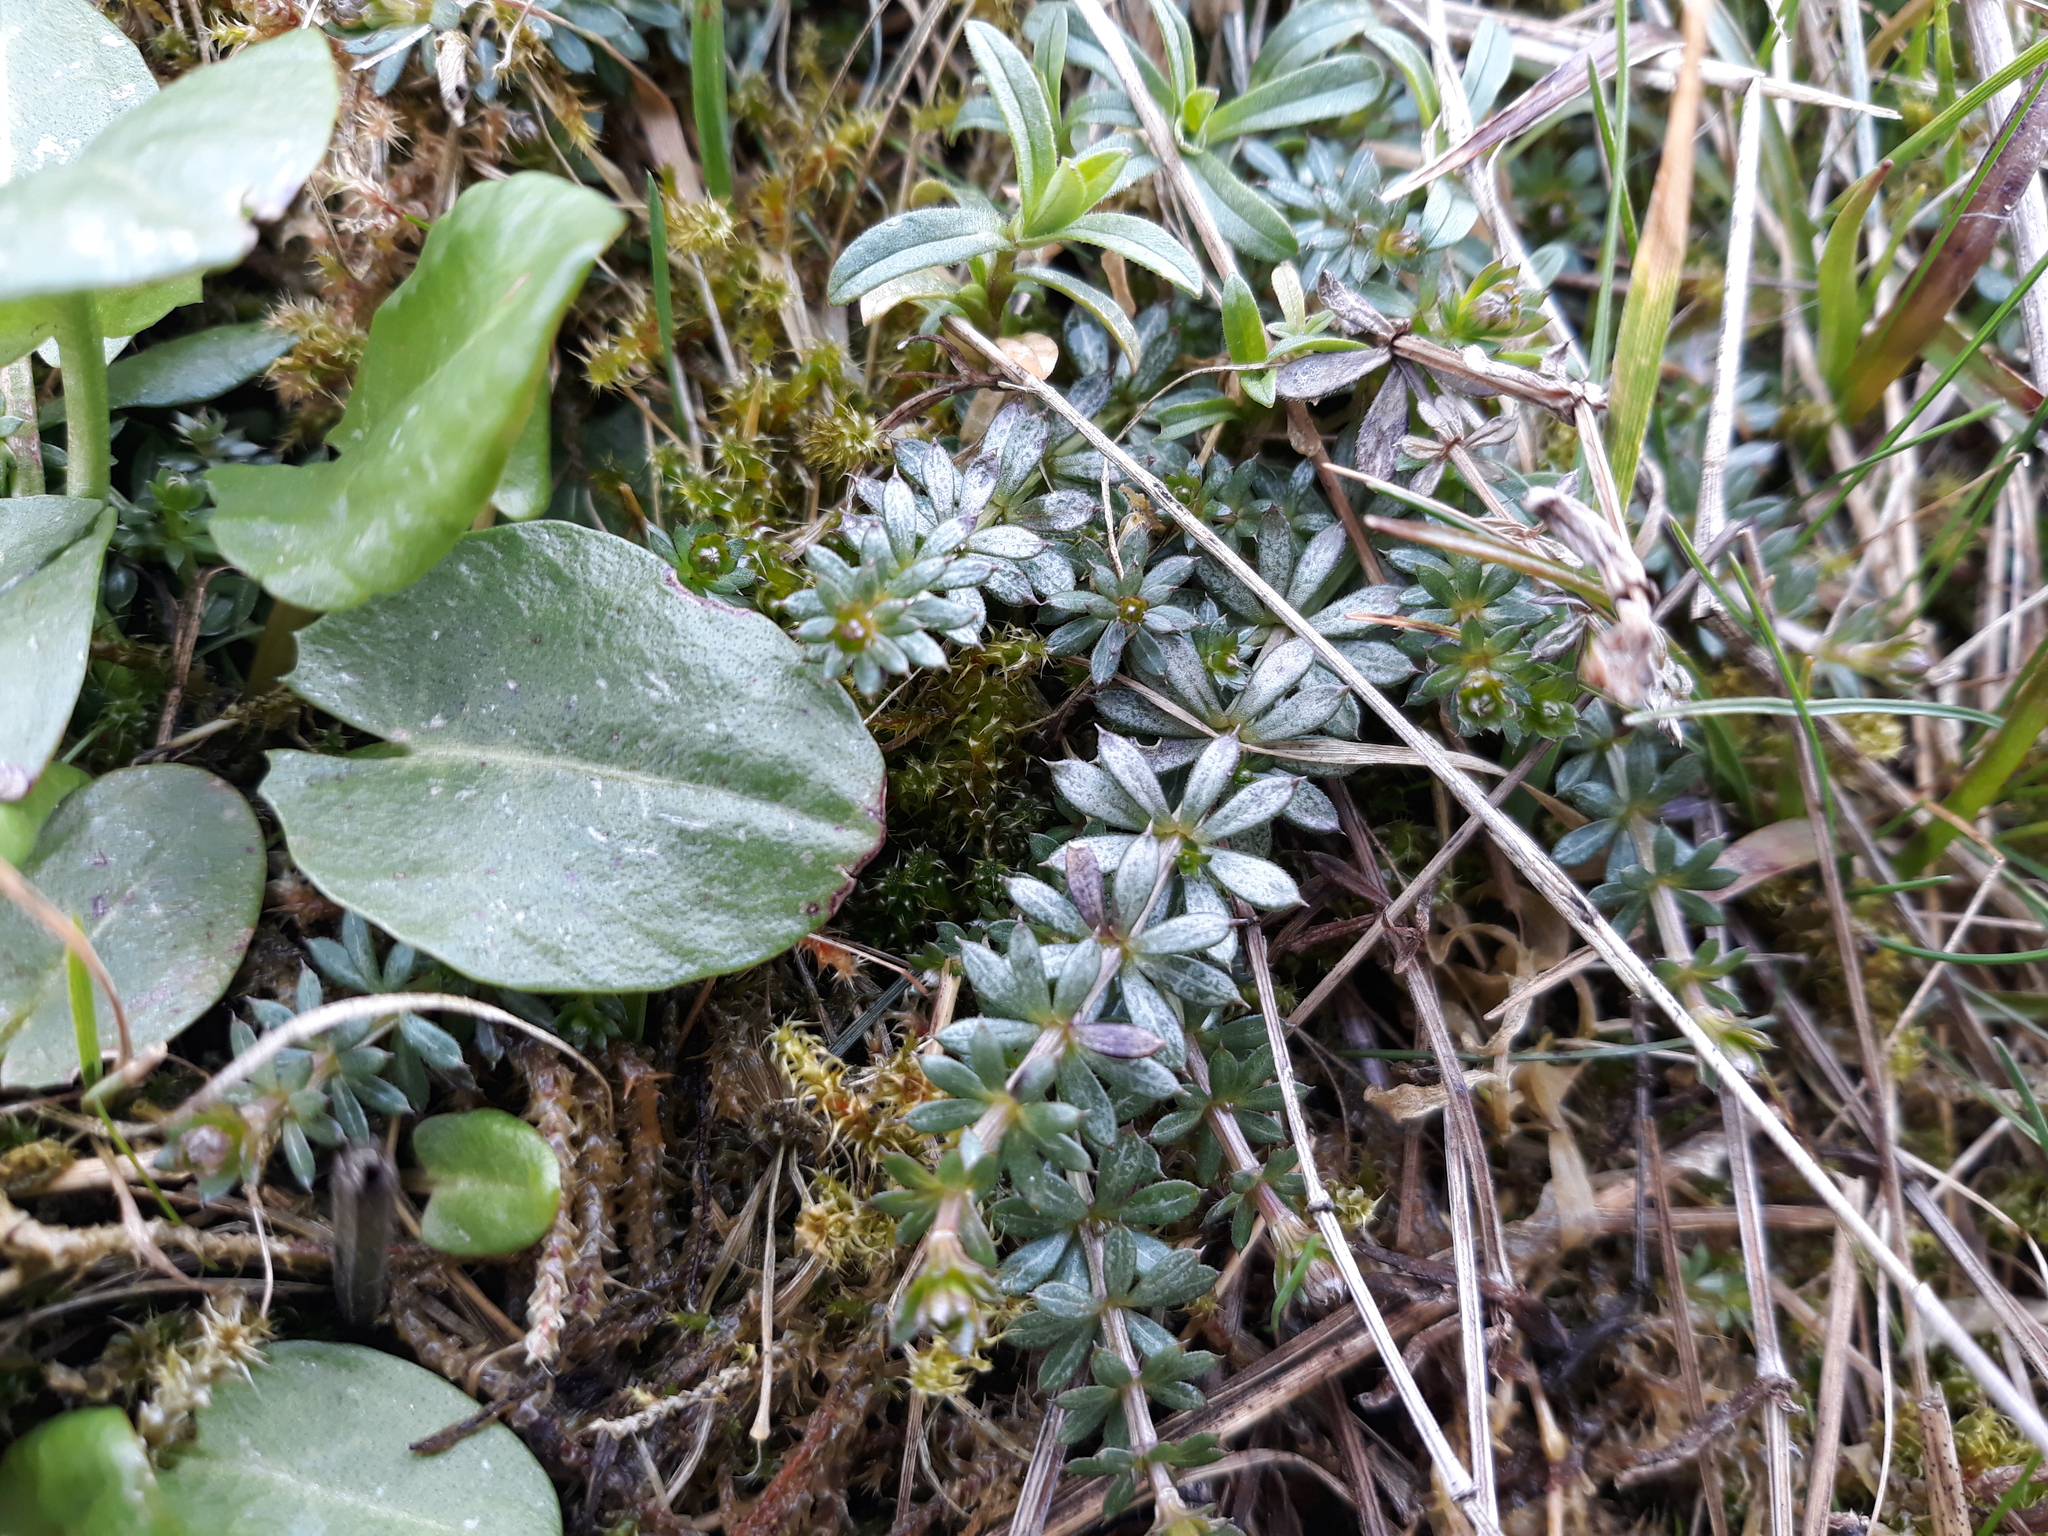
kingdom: Plantae
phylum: Tracheophyta
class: Magnoliopsida
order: Gentianales
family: Rubiaceae
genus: Galium
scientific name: Galium album
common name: White bedstraw
